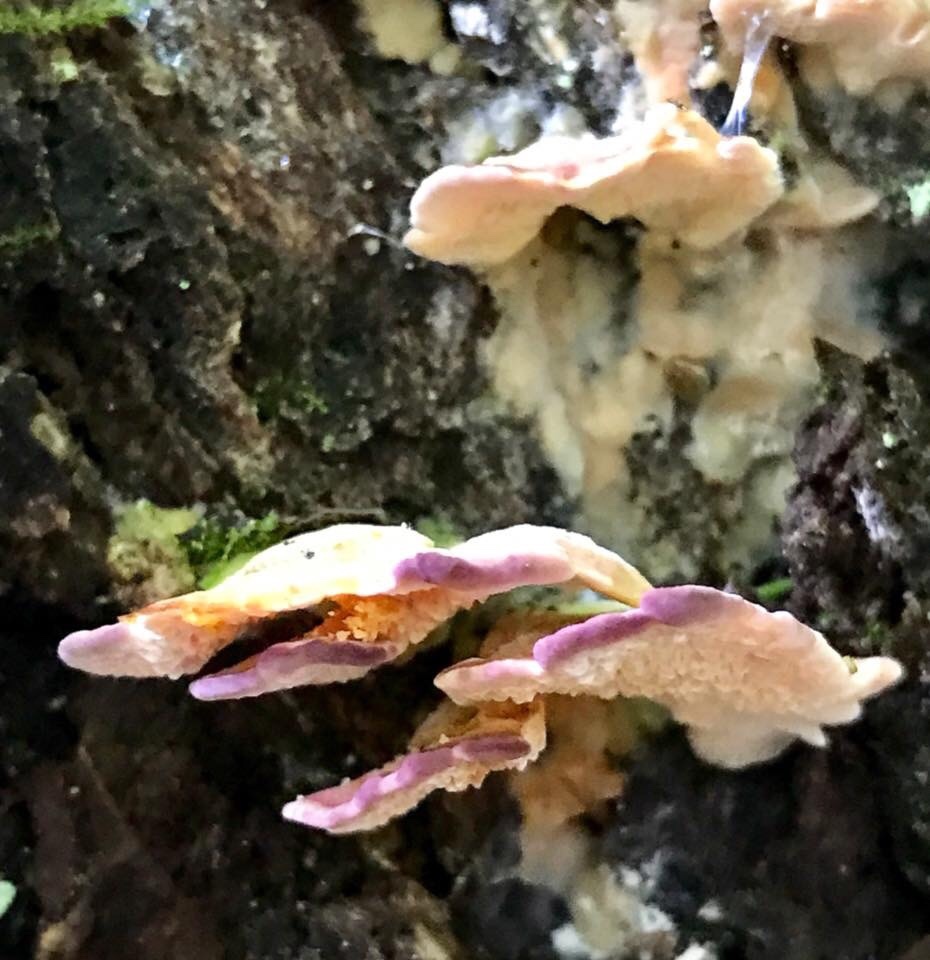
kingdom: Fungi
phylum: Basidiomycota
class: Agaricomycetes
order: Hymenochaetales
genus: Trichaptum
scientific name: Trichaptum biforme
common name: Violet-toothed polypore
